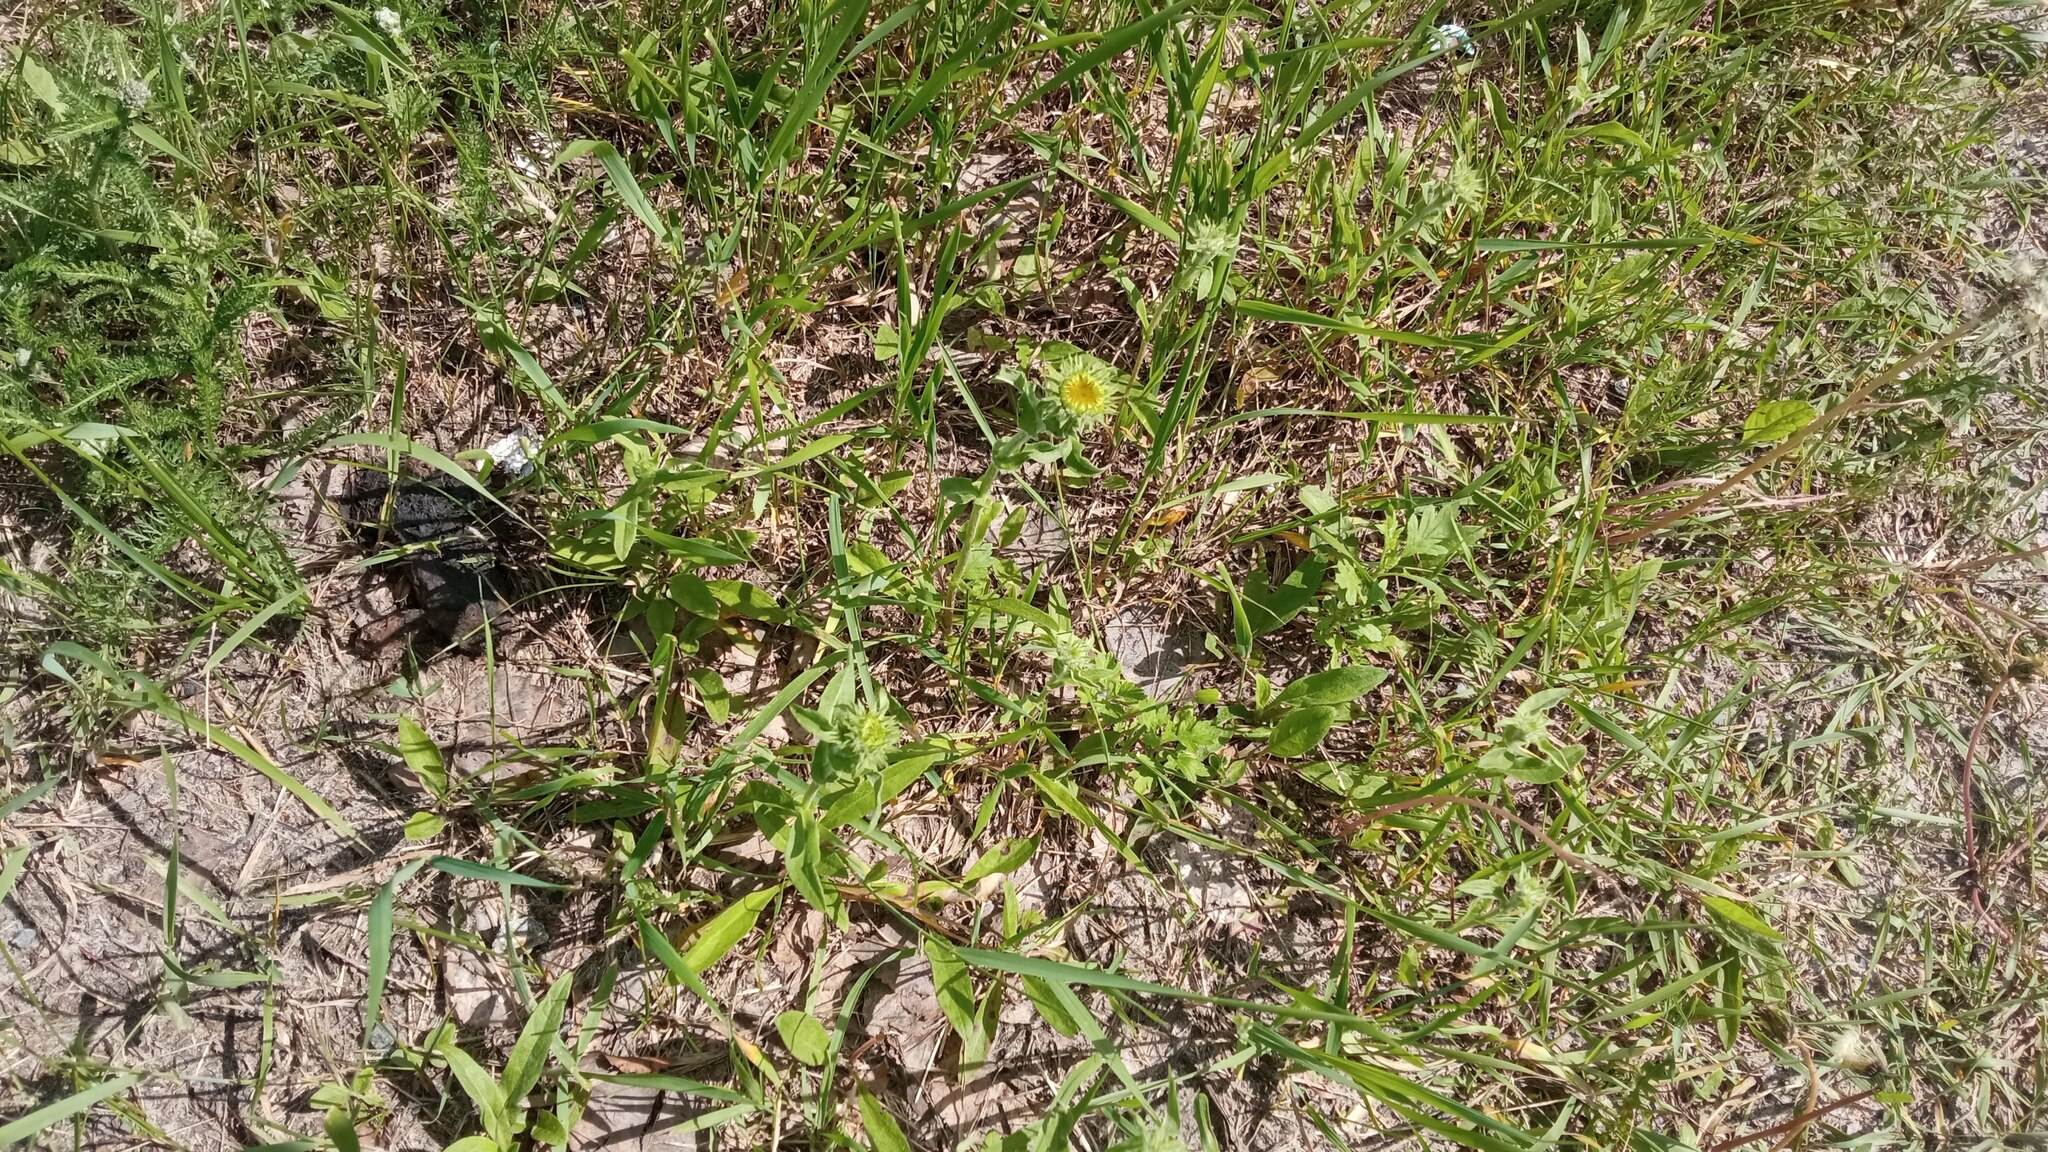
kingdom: Plantae
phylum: Tracheophyta
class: Magnoliopsida
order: Asterales
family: Asteraceae
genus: Pentanema
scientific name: Pentanema britannicum
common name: British elecampane
